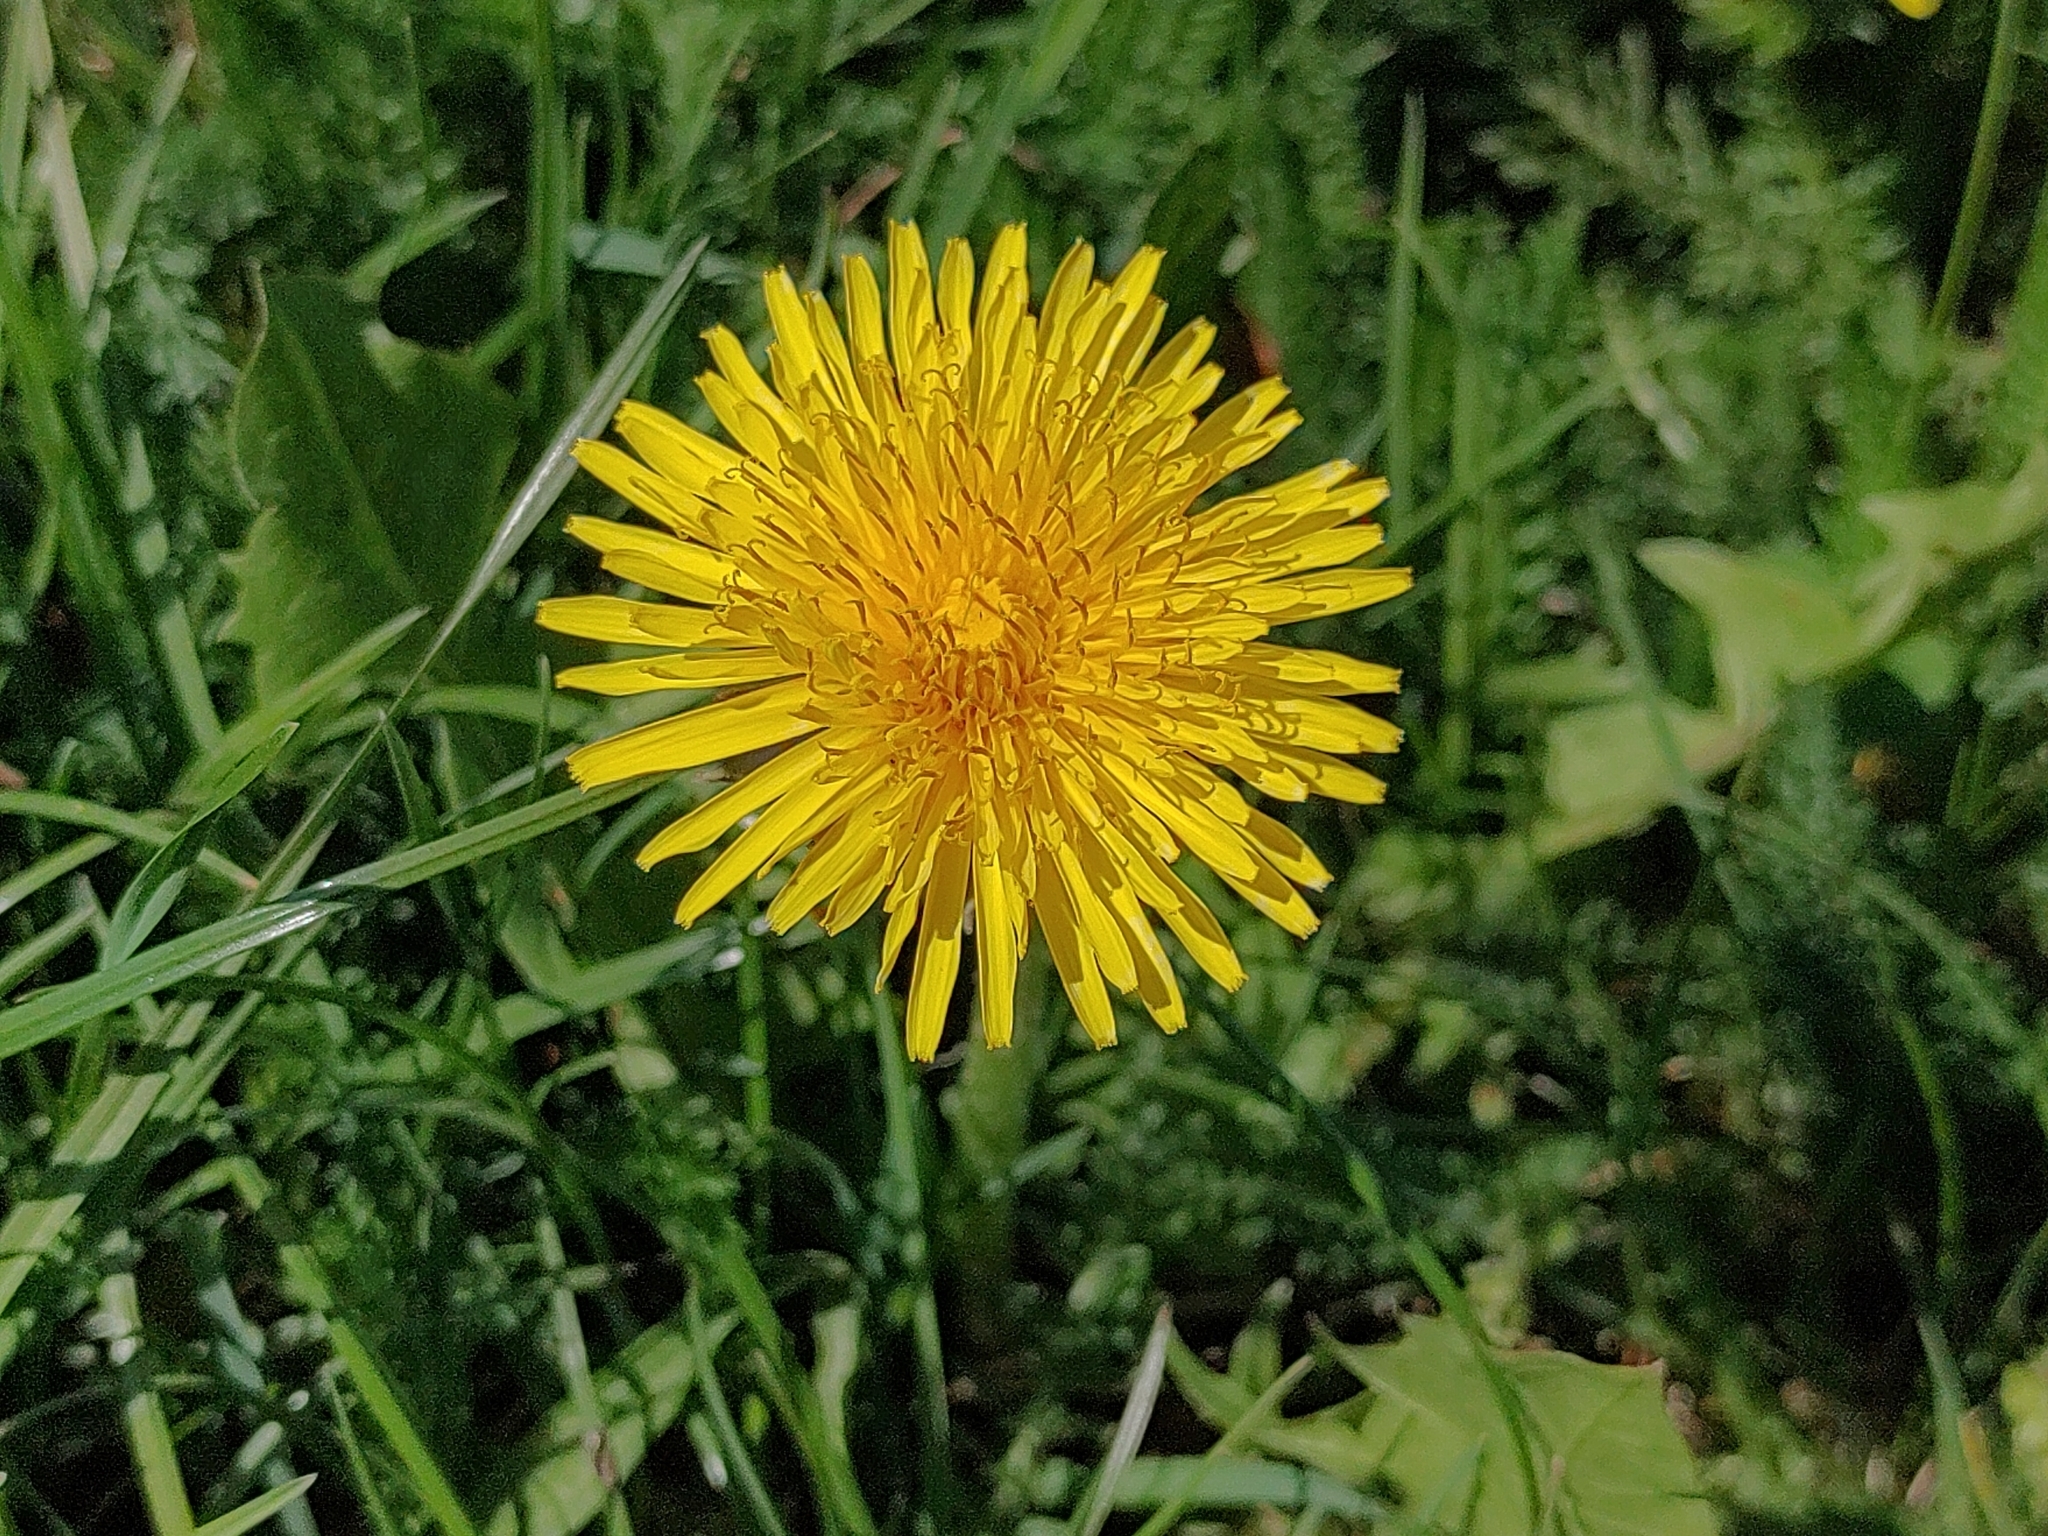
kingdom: Plantae
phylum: Tracheophyta
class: Magnoliopsida
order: Asterales
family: Asteraceae
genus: Taraxacum
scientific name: Taraxacum
